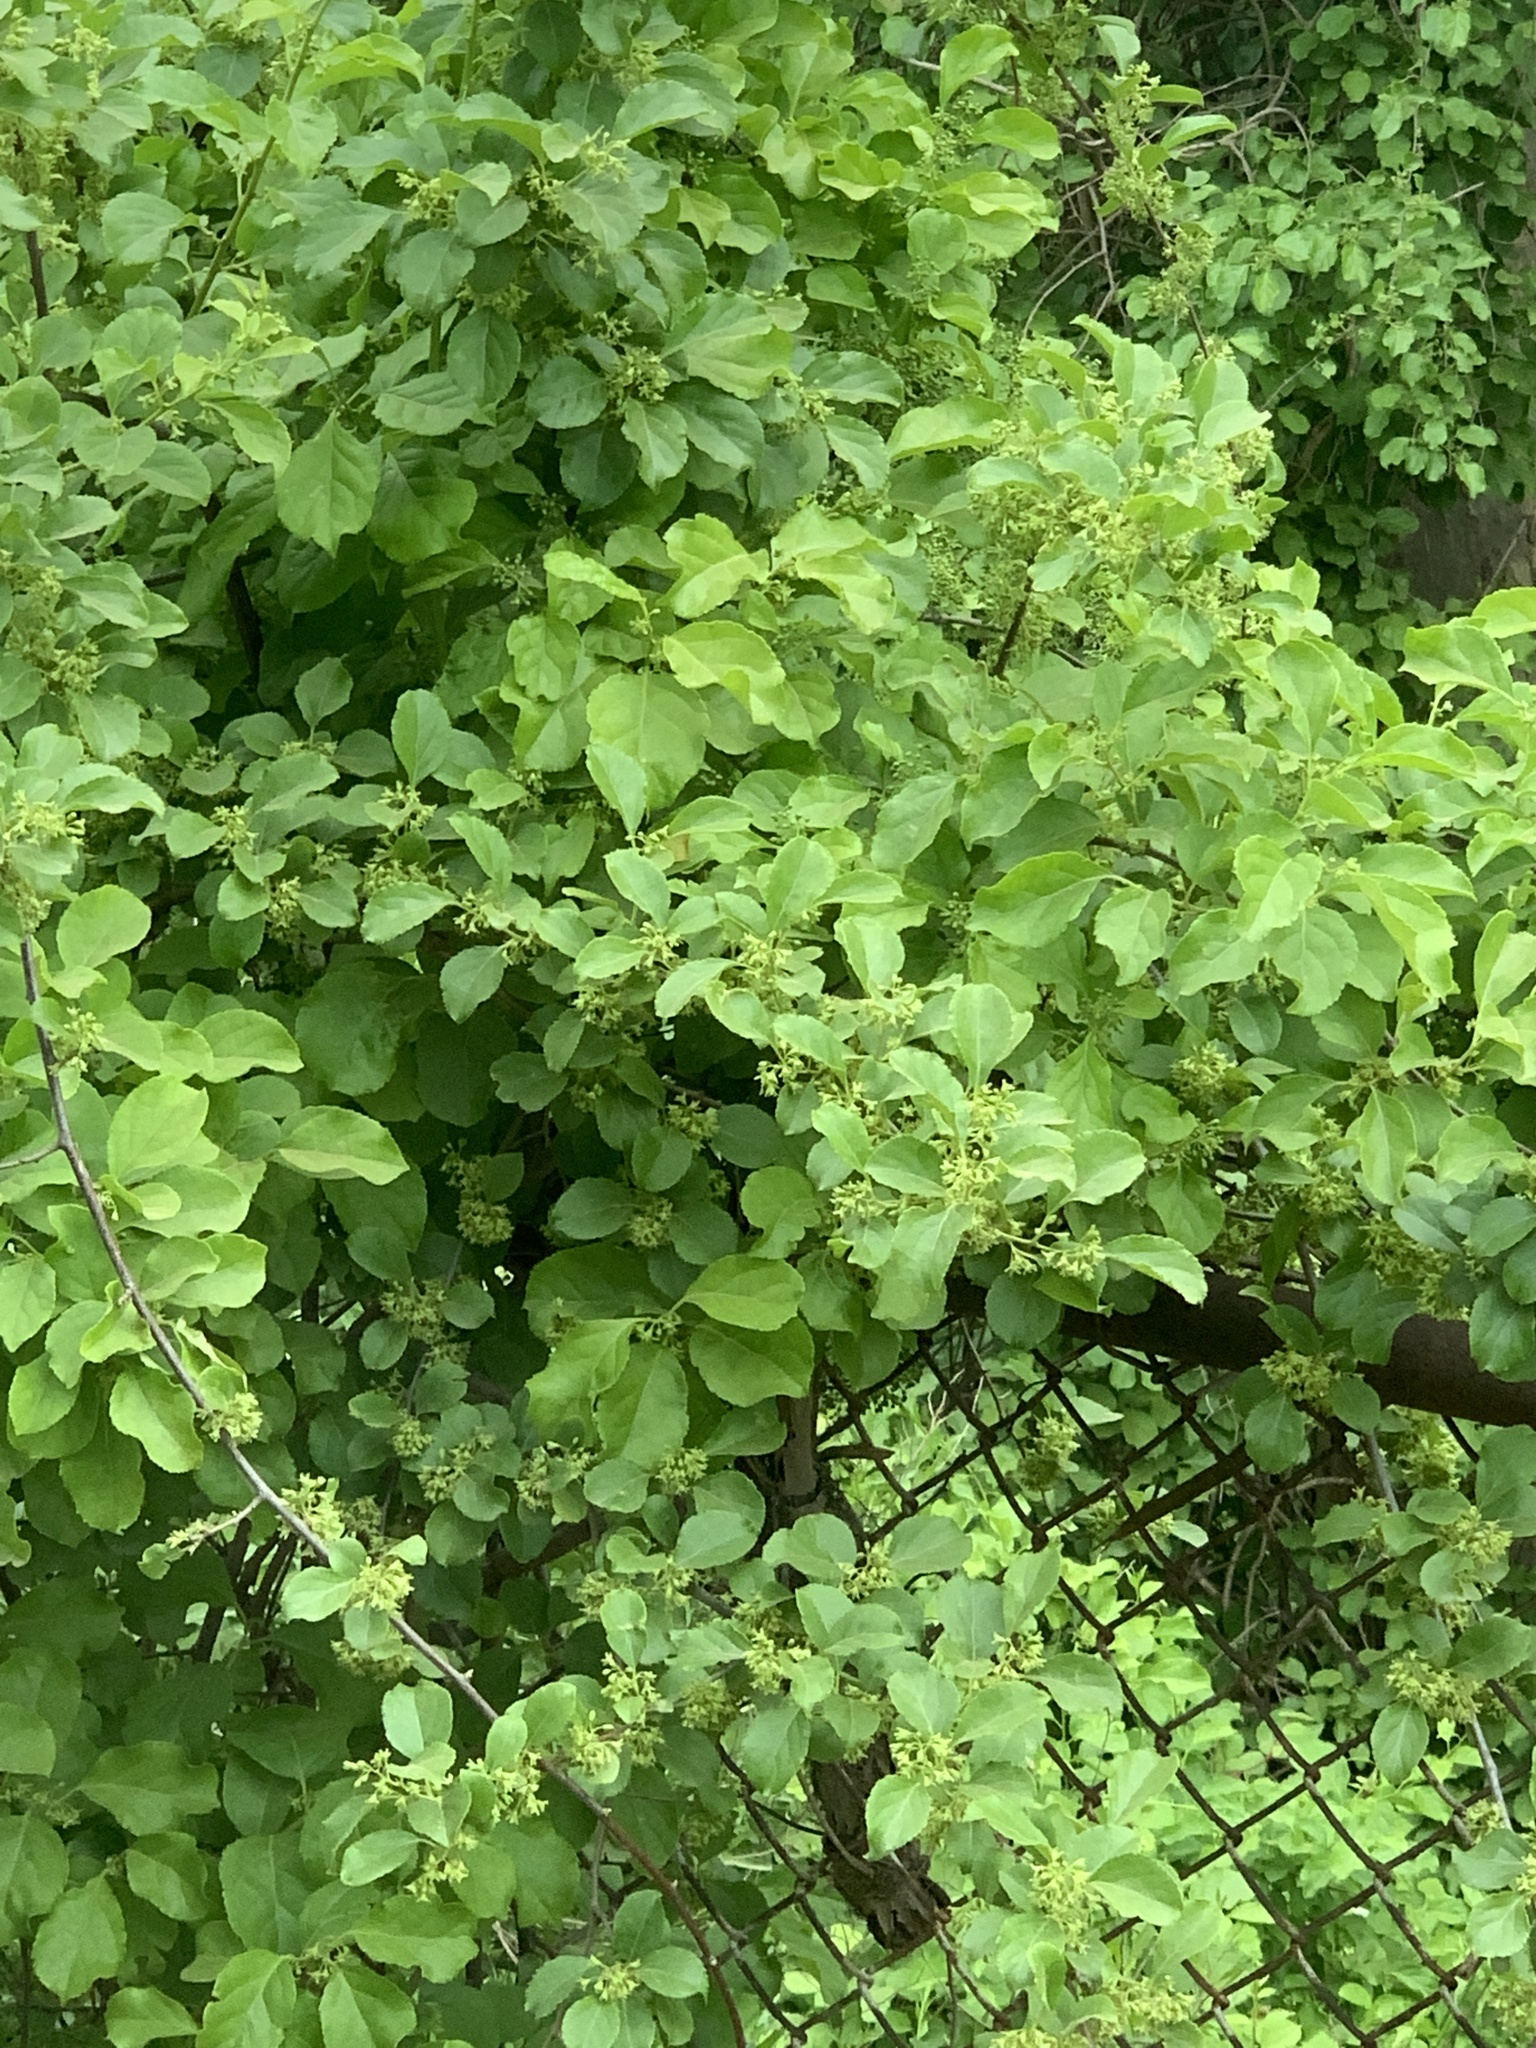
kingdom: Plantae
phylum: Tracheophyta
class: Magnoliopsida
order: Celastrales
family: Celastraceae
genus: Celastrus
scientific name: Celastrus orbiculatus
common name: Oriental bittersweet
